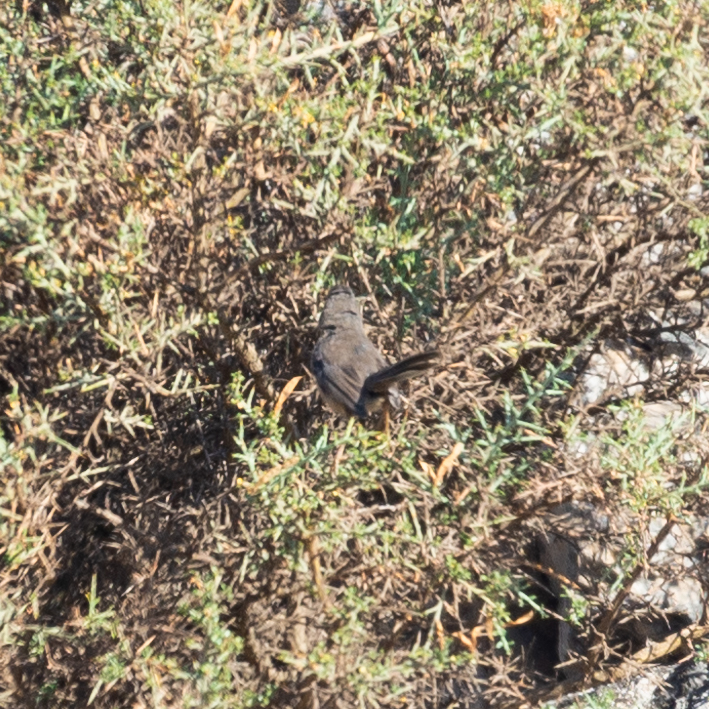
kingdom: Animalia
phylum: Chordata
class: Aves
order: Passeriformes
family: Sylviidae
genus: Sylvia
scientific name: Sylvia undata
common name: Dartford warbler
